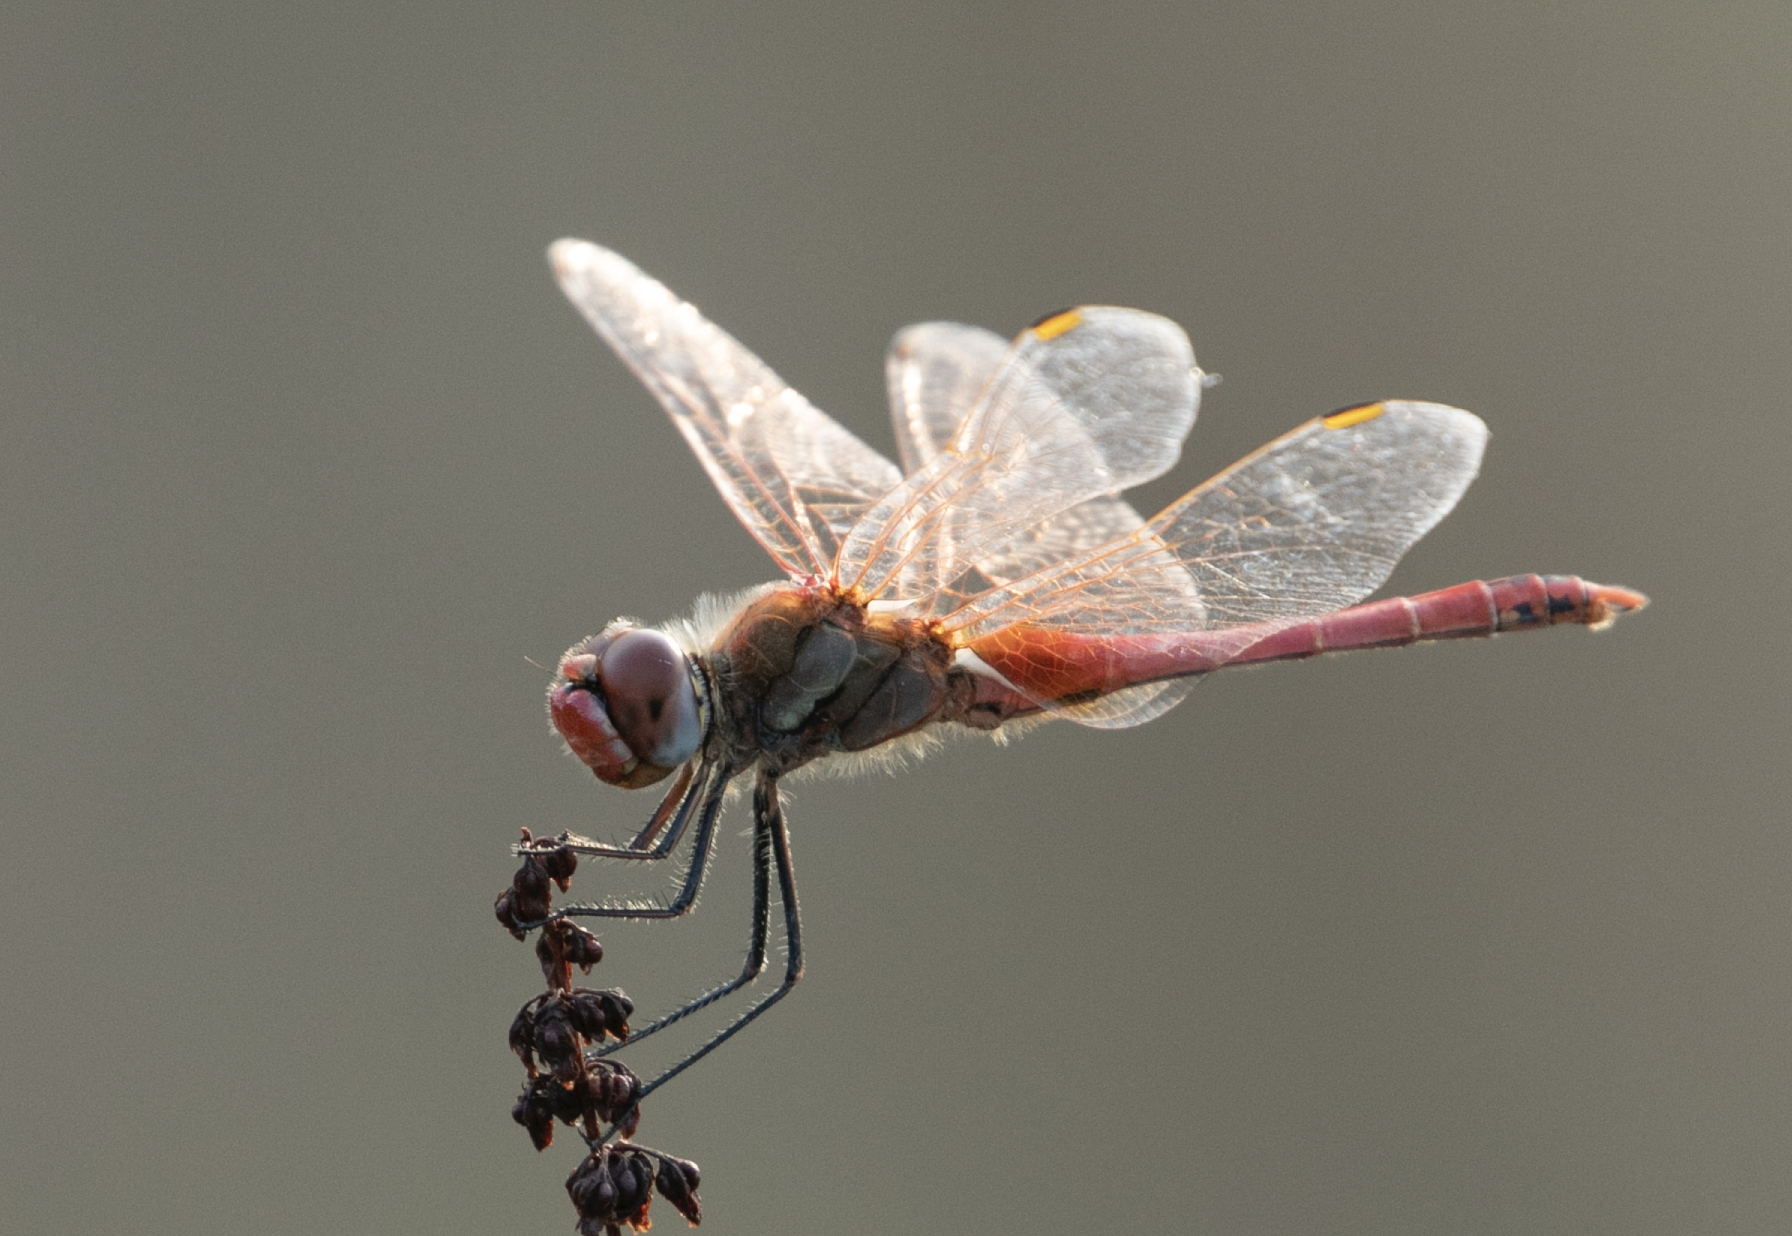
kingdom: Animalia
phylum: Arthropoda
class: Insecta
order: Odonata
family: Libellulidae
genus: Sympetrum
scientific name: Sympetrum fonscolombii
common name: Red-veined darter
